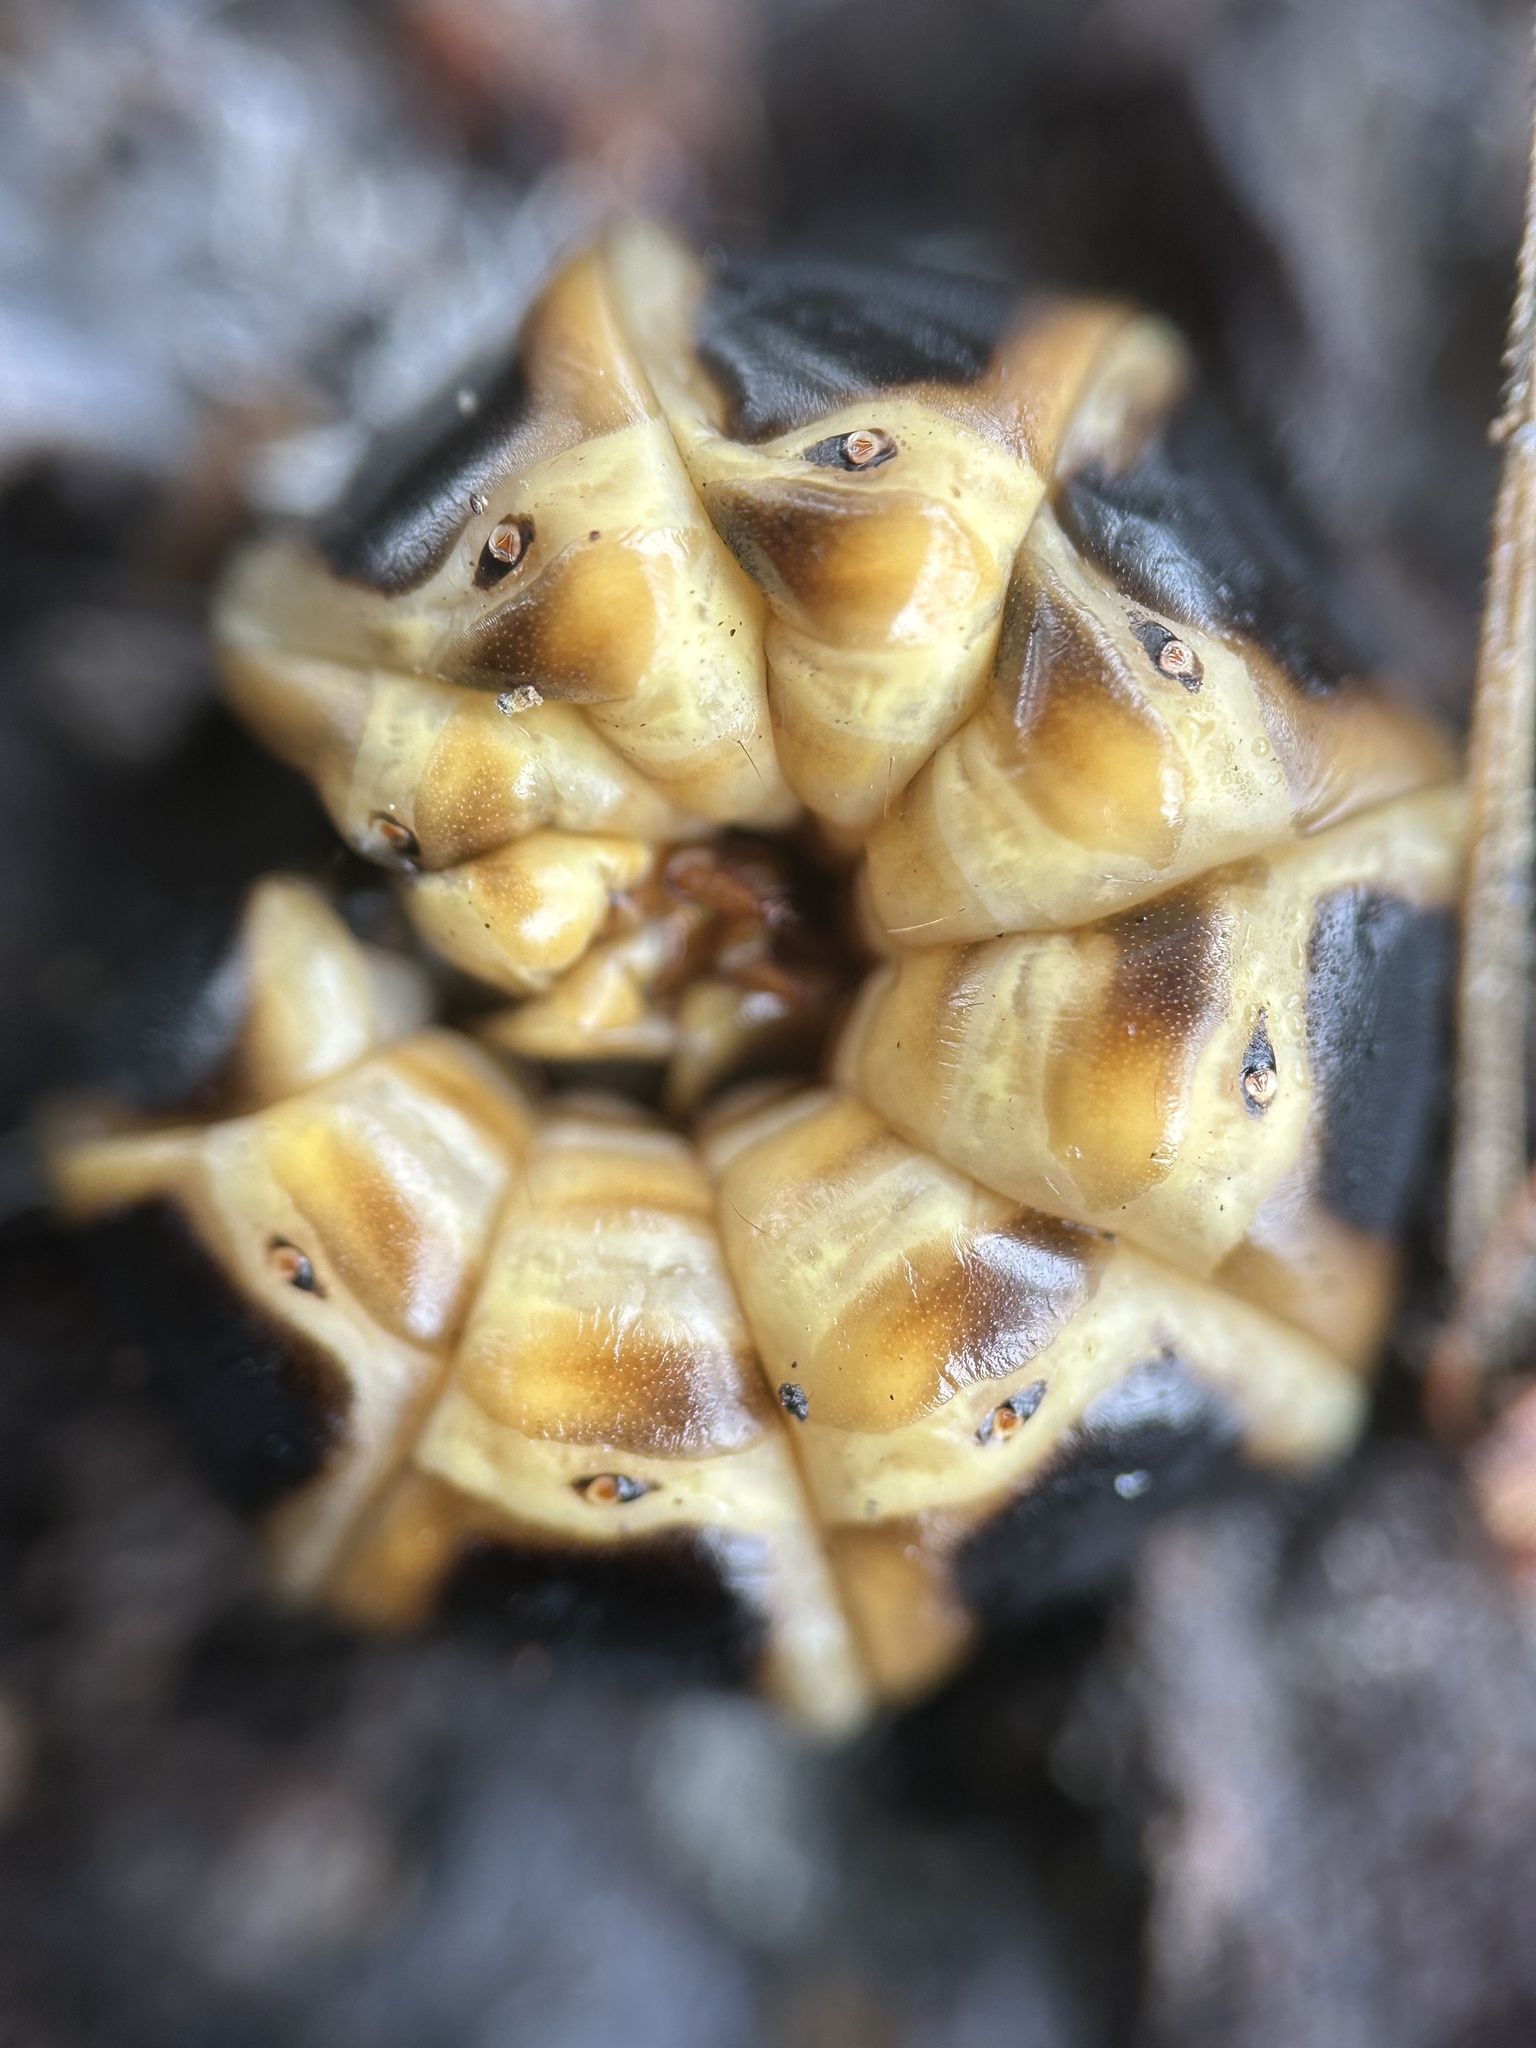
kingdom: Animalia
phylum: Arthropoda
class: Insecta
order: Coleoptera
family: Phengodidae
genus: Zarhipis
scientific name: Zarhipis integripennis
